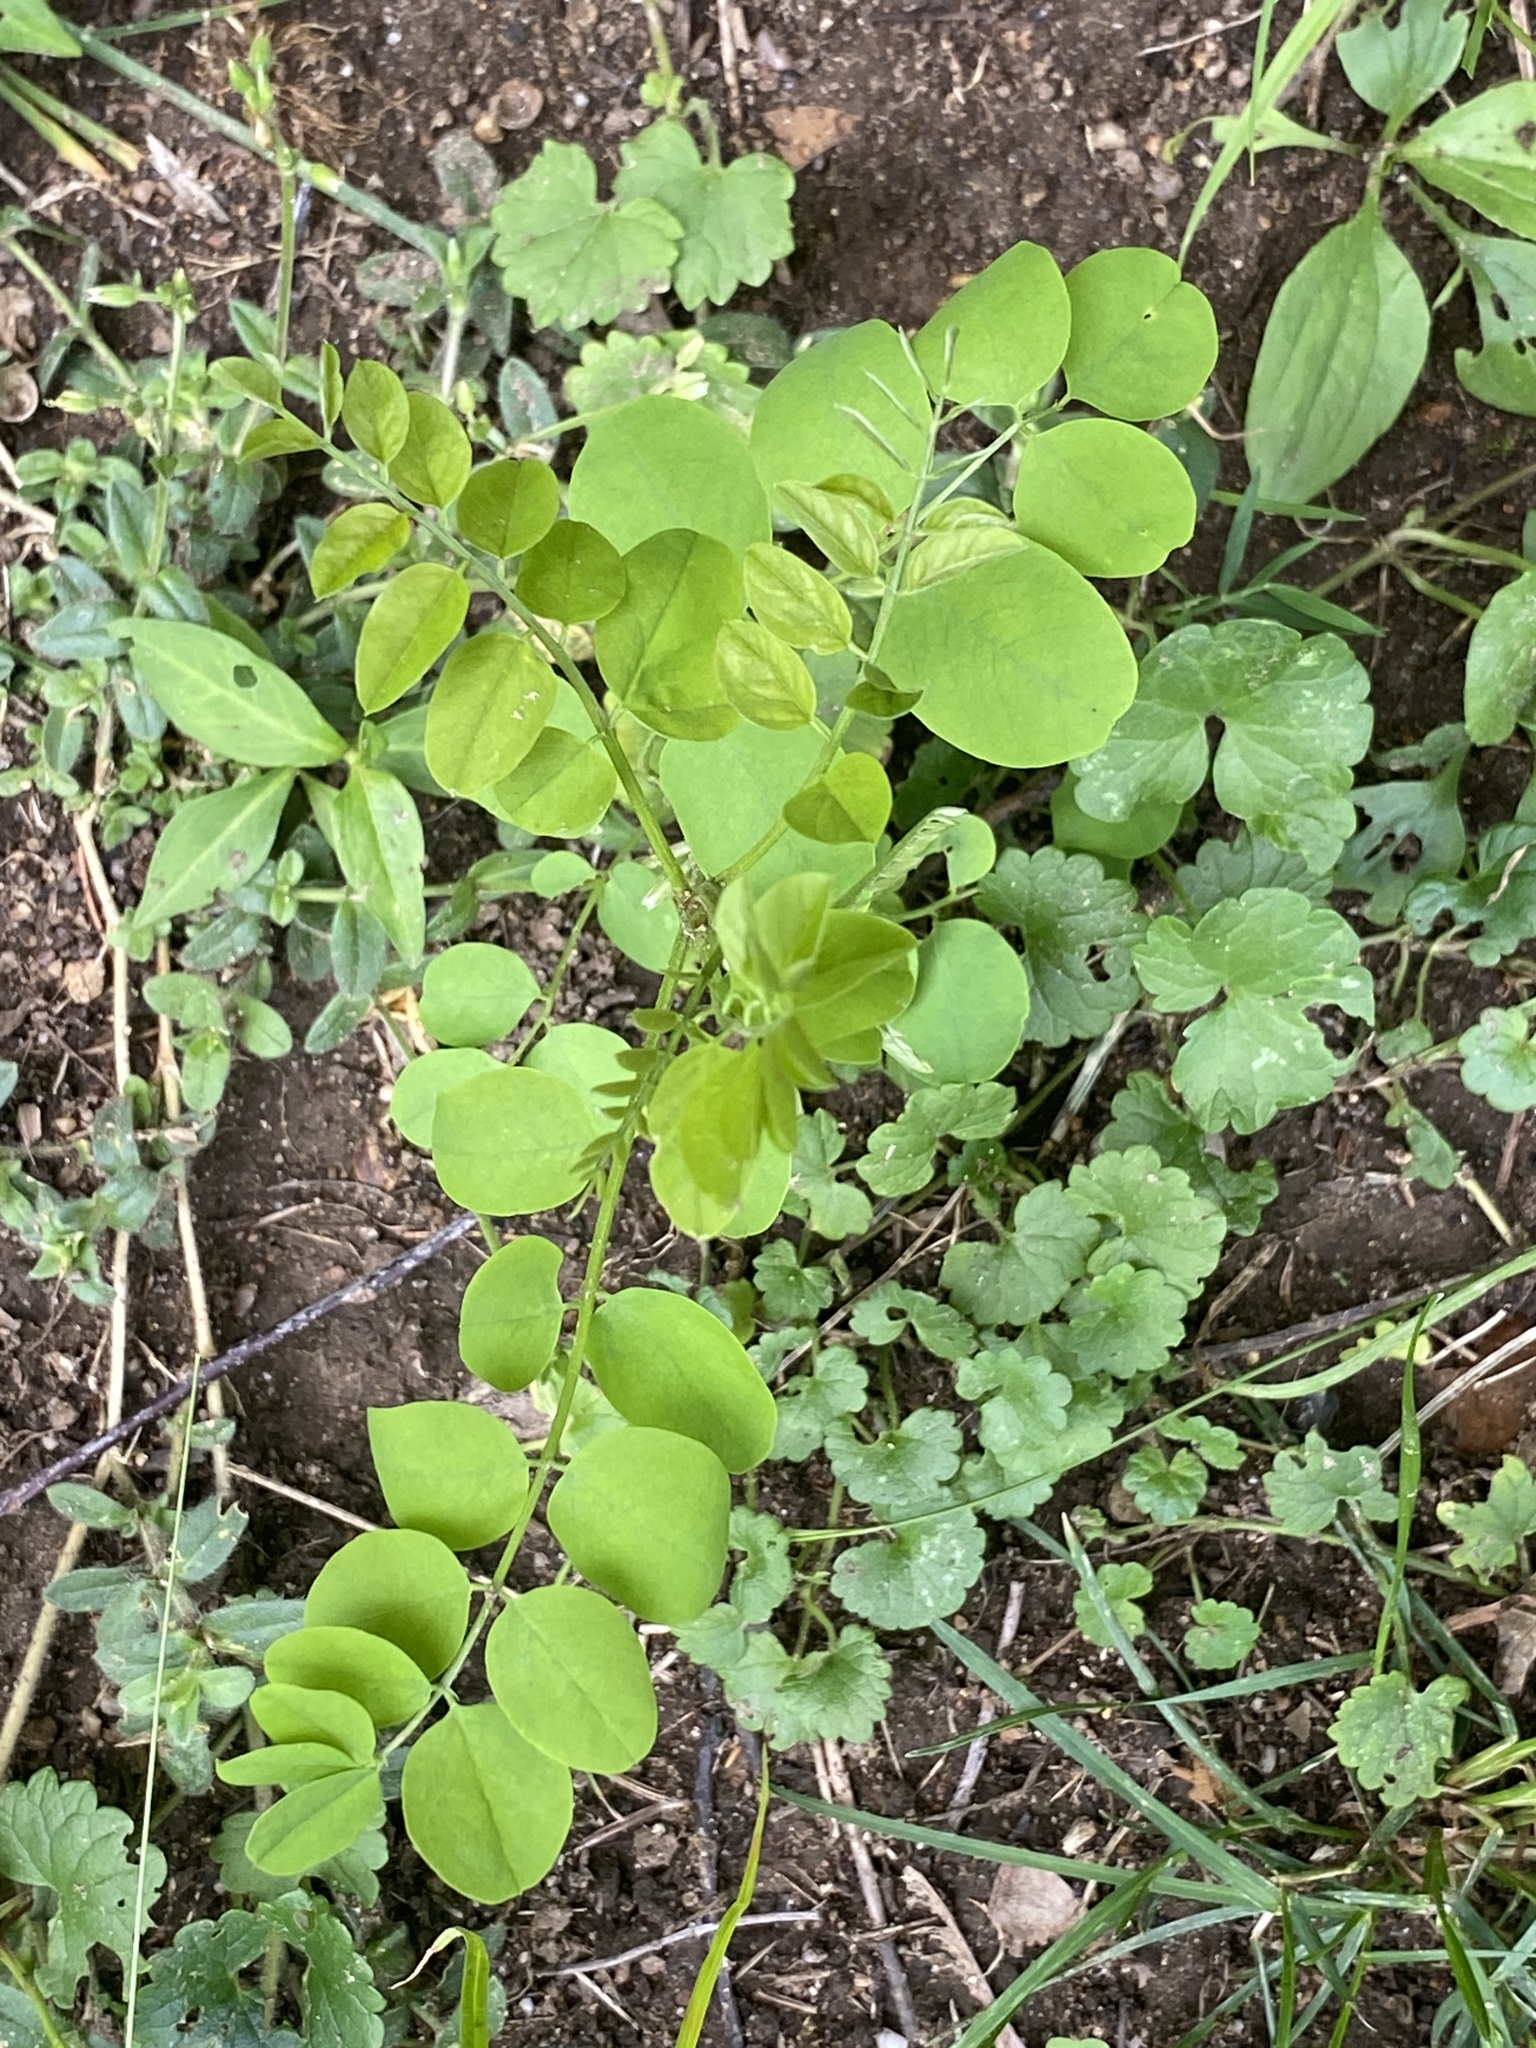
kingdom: Plantae
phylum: Tracheophyta
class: Magnoliopsida
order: Fabales
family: Fabaceae
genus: Robinia
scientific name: Robinia pseudoacacia
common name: Black locust
